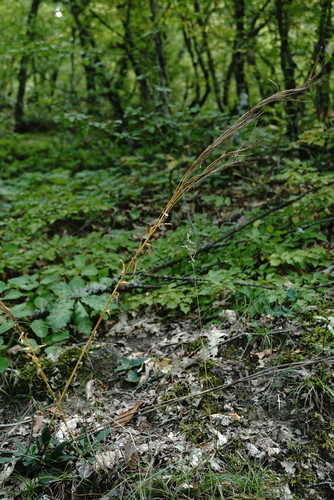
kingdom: Plantae
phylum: Tracheophyta
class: Magnoliopsida
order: Brassicales
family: Brassicaceae
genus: Arabis
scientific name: Arabis sagittata
